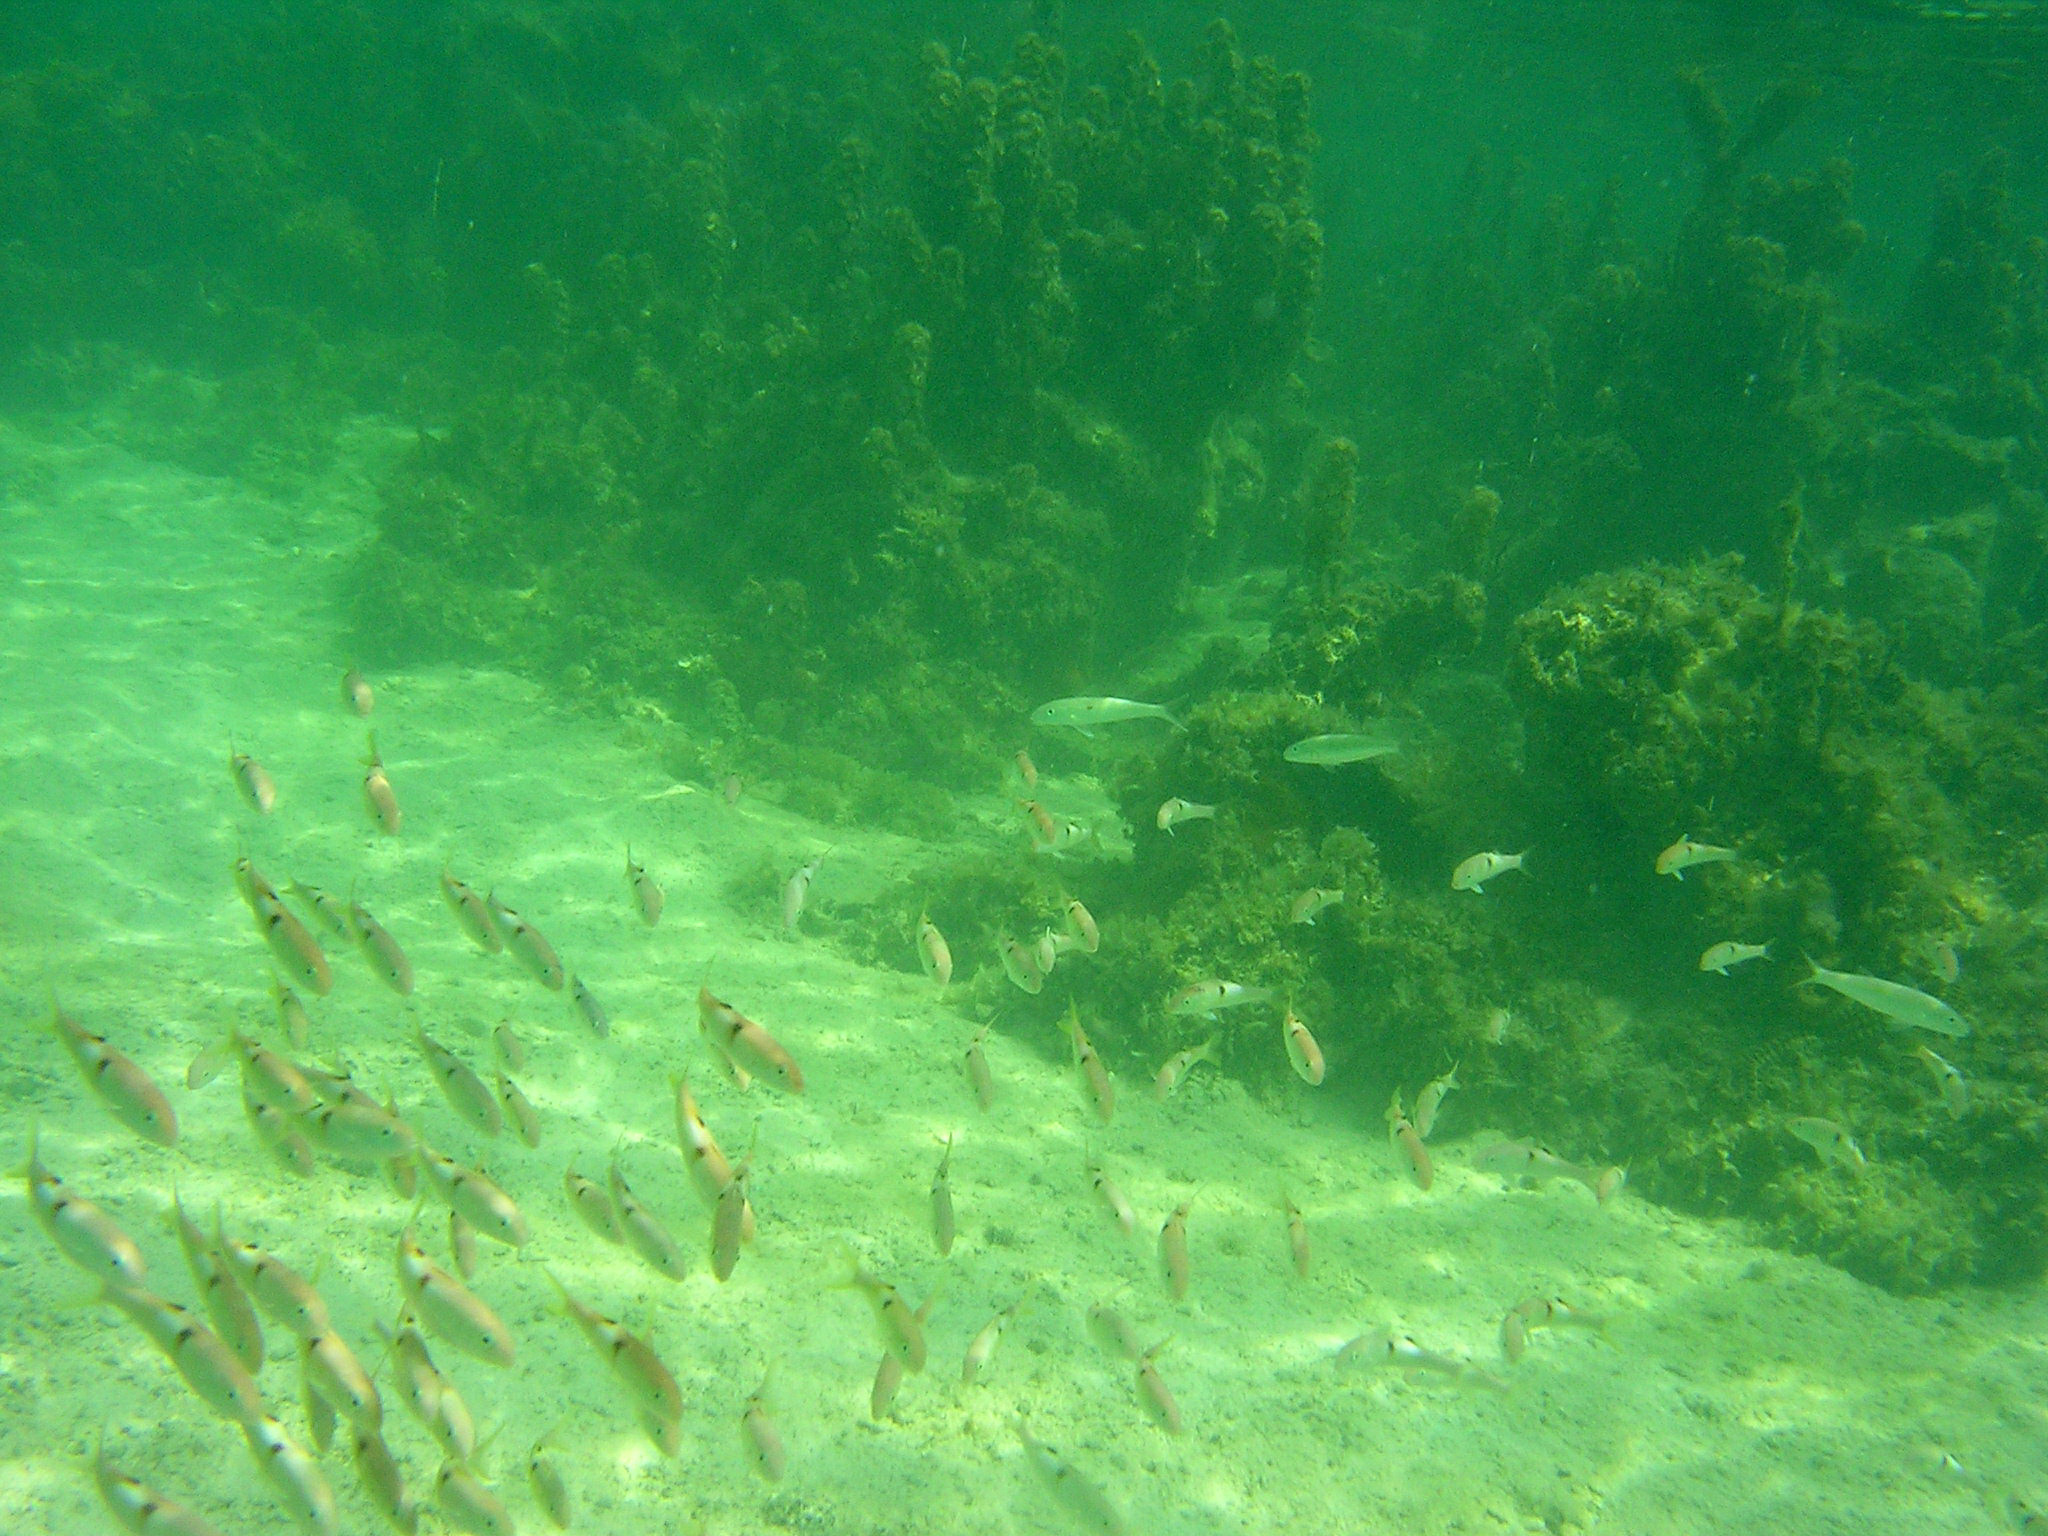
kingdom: Animalia
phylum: Chordata
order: Perciformes
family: Mullidae
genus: Parupeneus
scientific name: Parupeneus pleurostigma
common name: Sidespot goatfish
